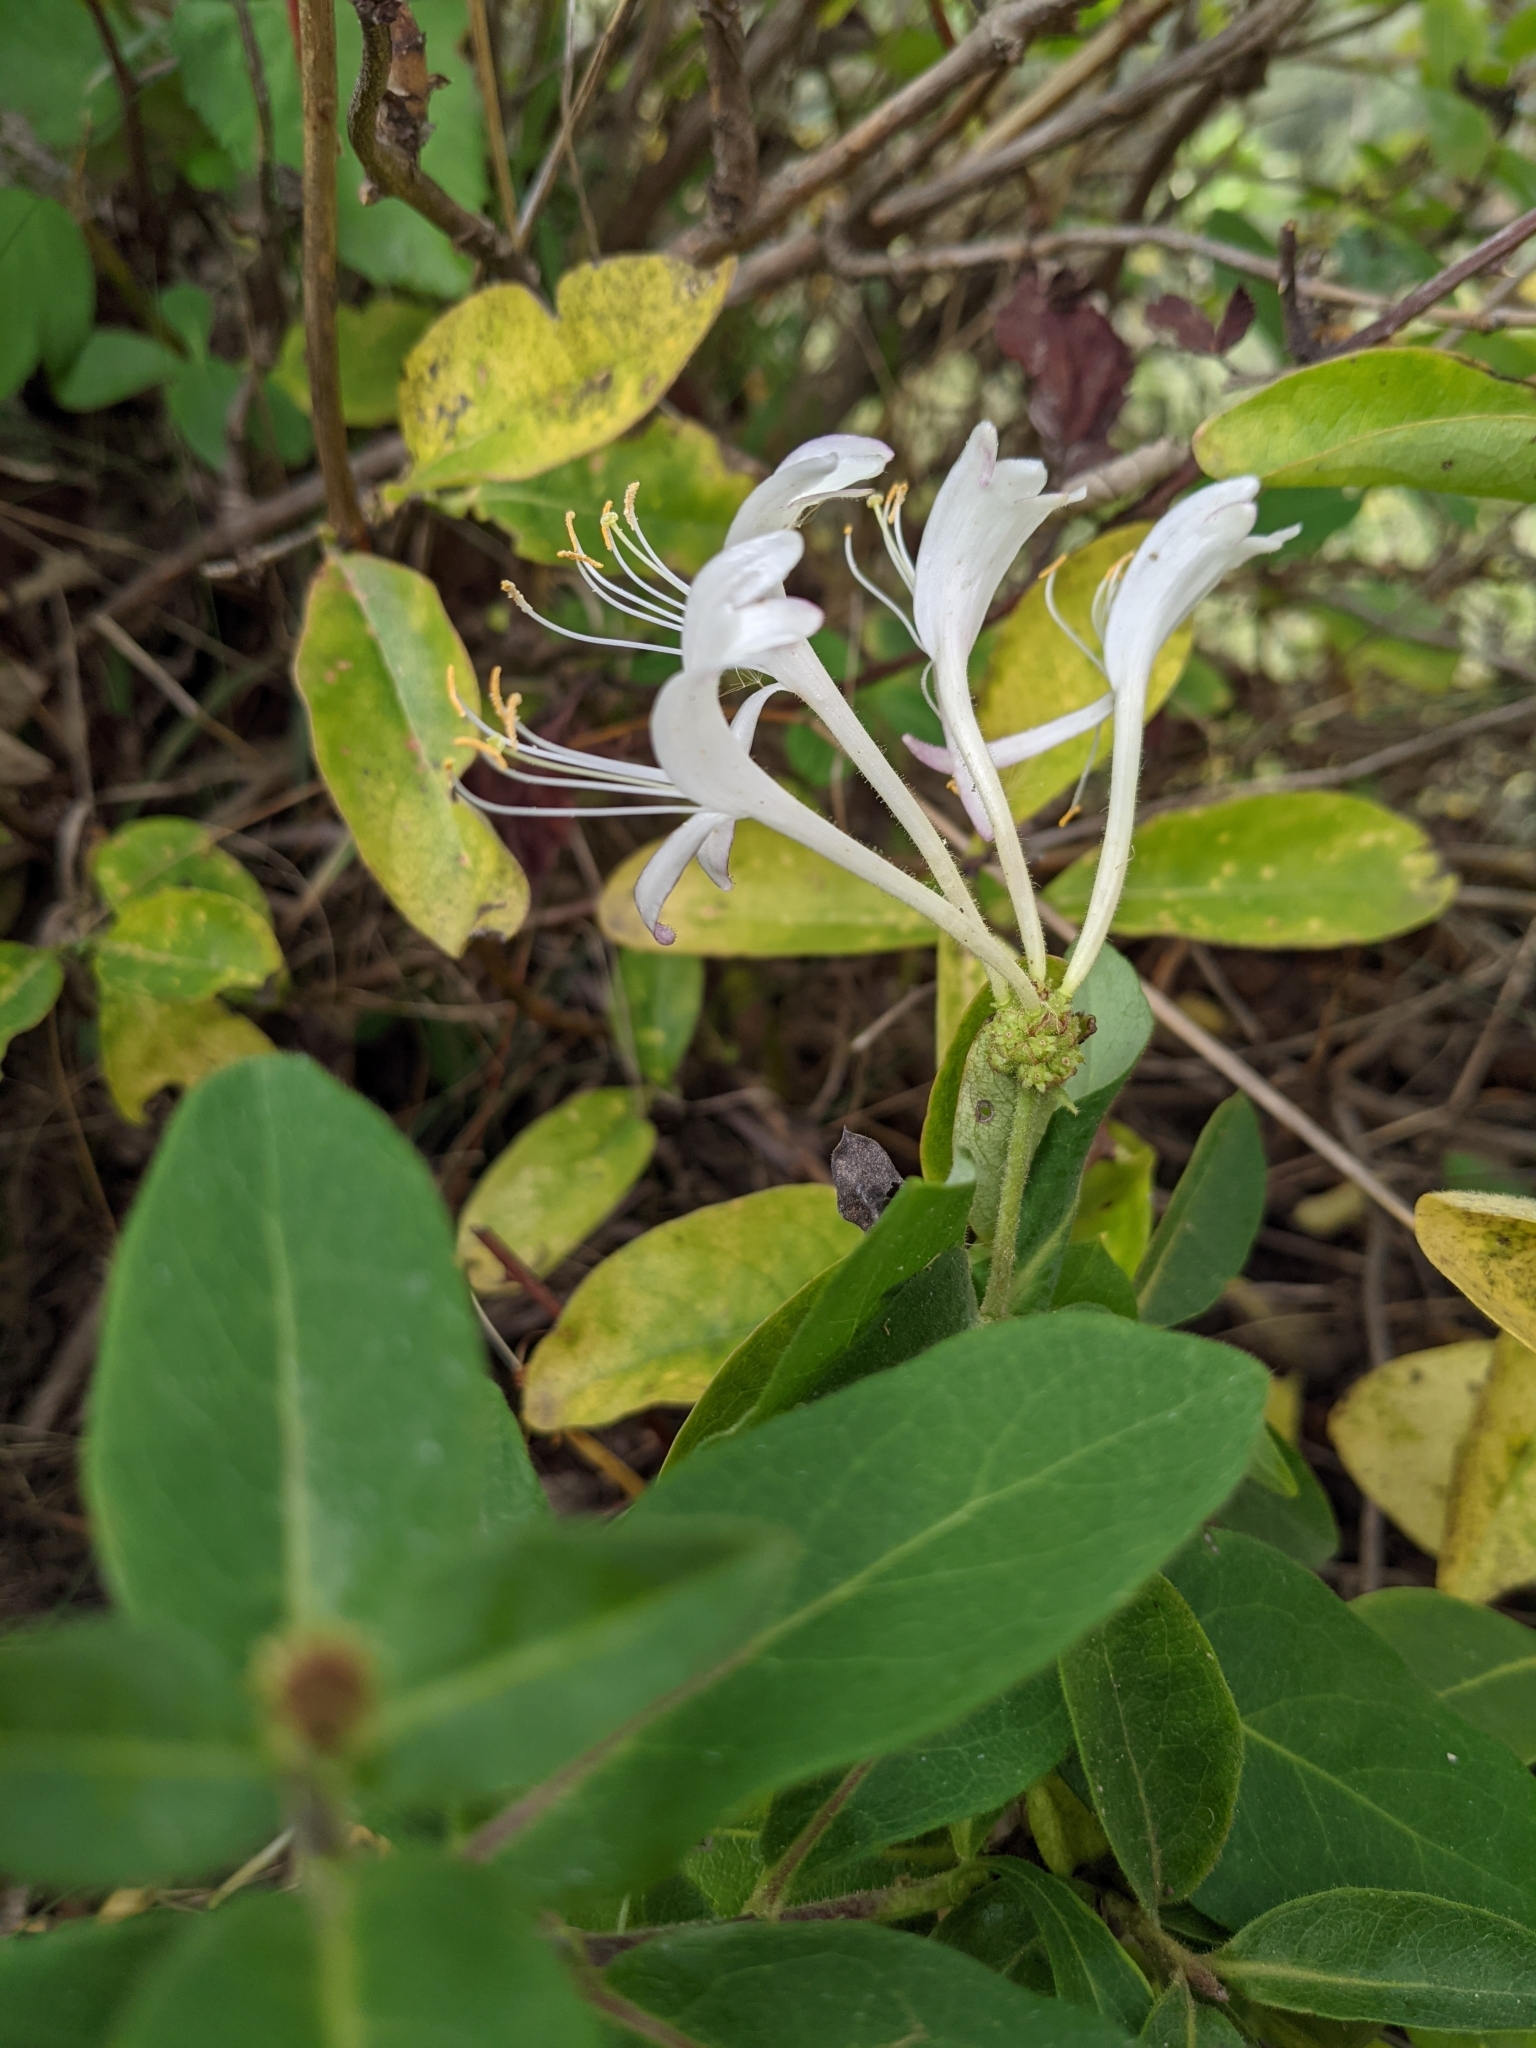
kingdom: Plantae
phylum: Tracheophyta
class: Magnoliopsida
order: Dipsacales
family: Caprifoliaceae
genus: Lonicera
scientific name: Lonicera periclymenum
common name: European honeysuckle
